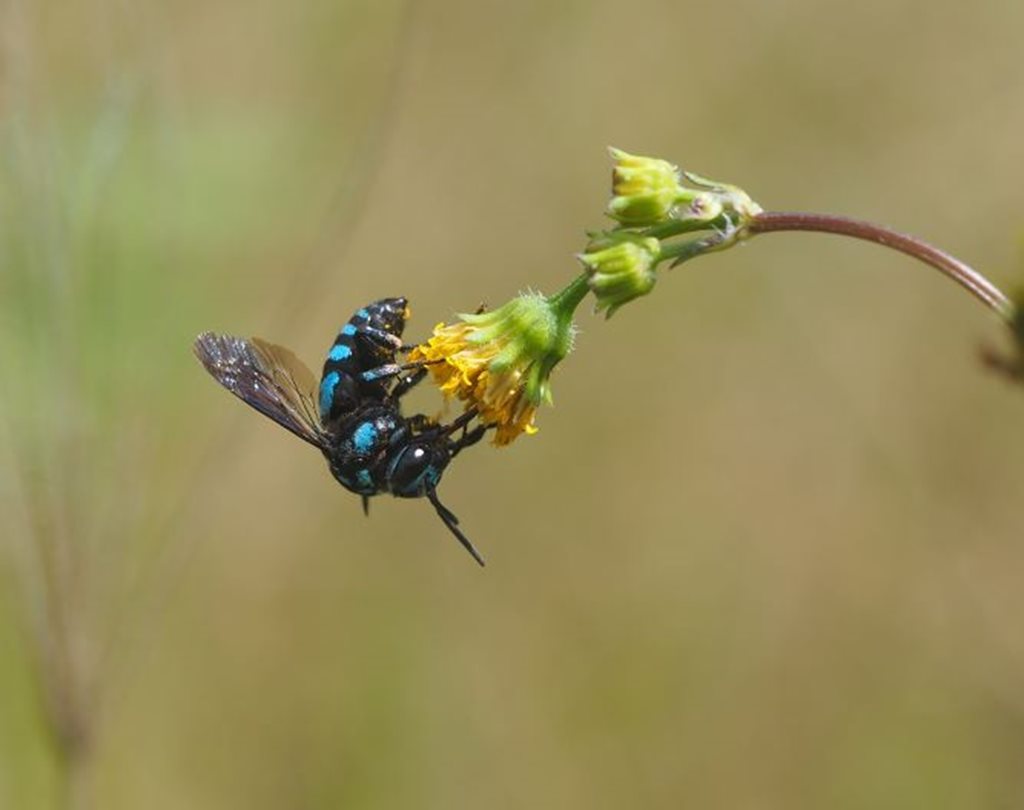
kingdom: Animalia
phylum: Arthropoda
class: Insecta
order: Hymenoptera
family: Apidae
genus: Thyreus
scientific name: Thyreus nitidulus
